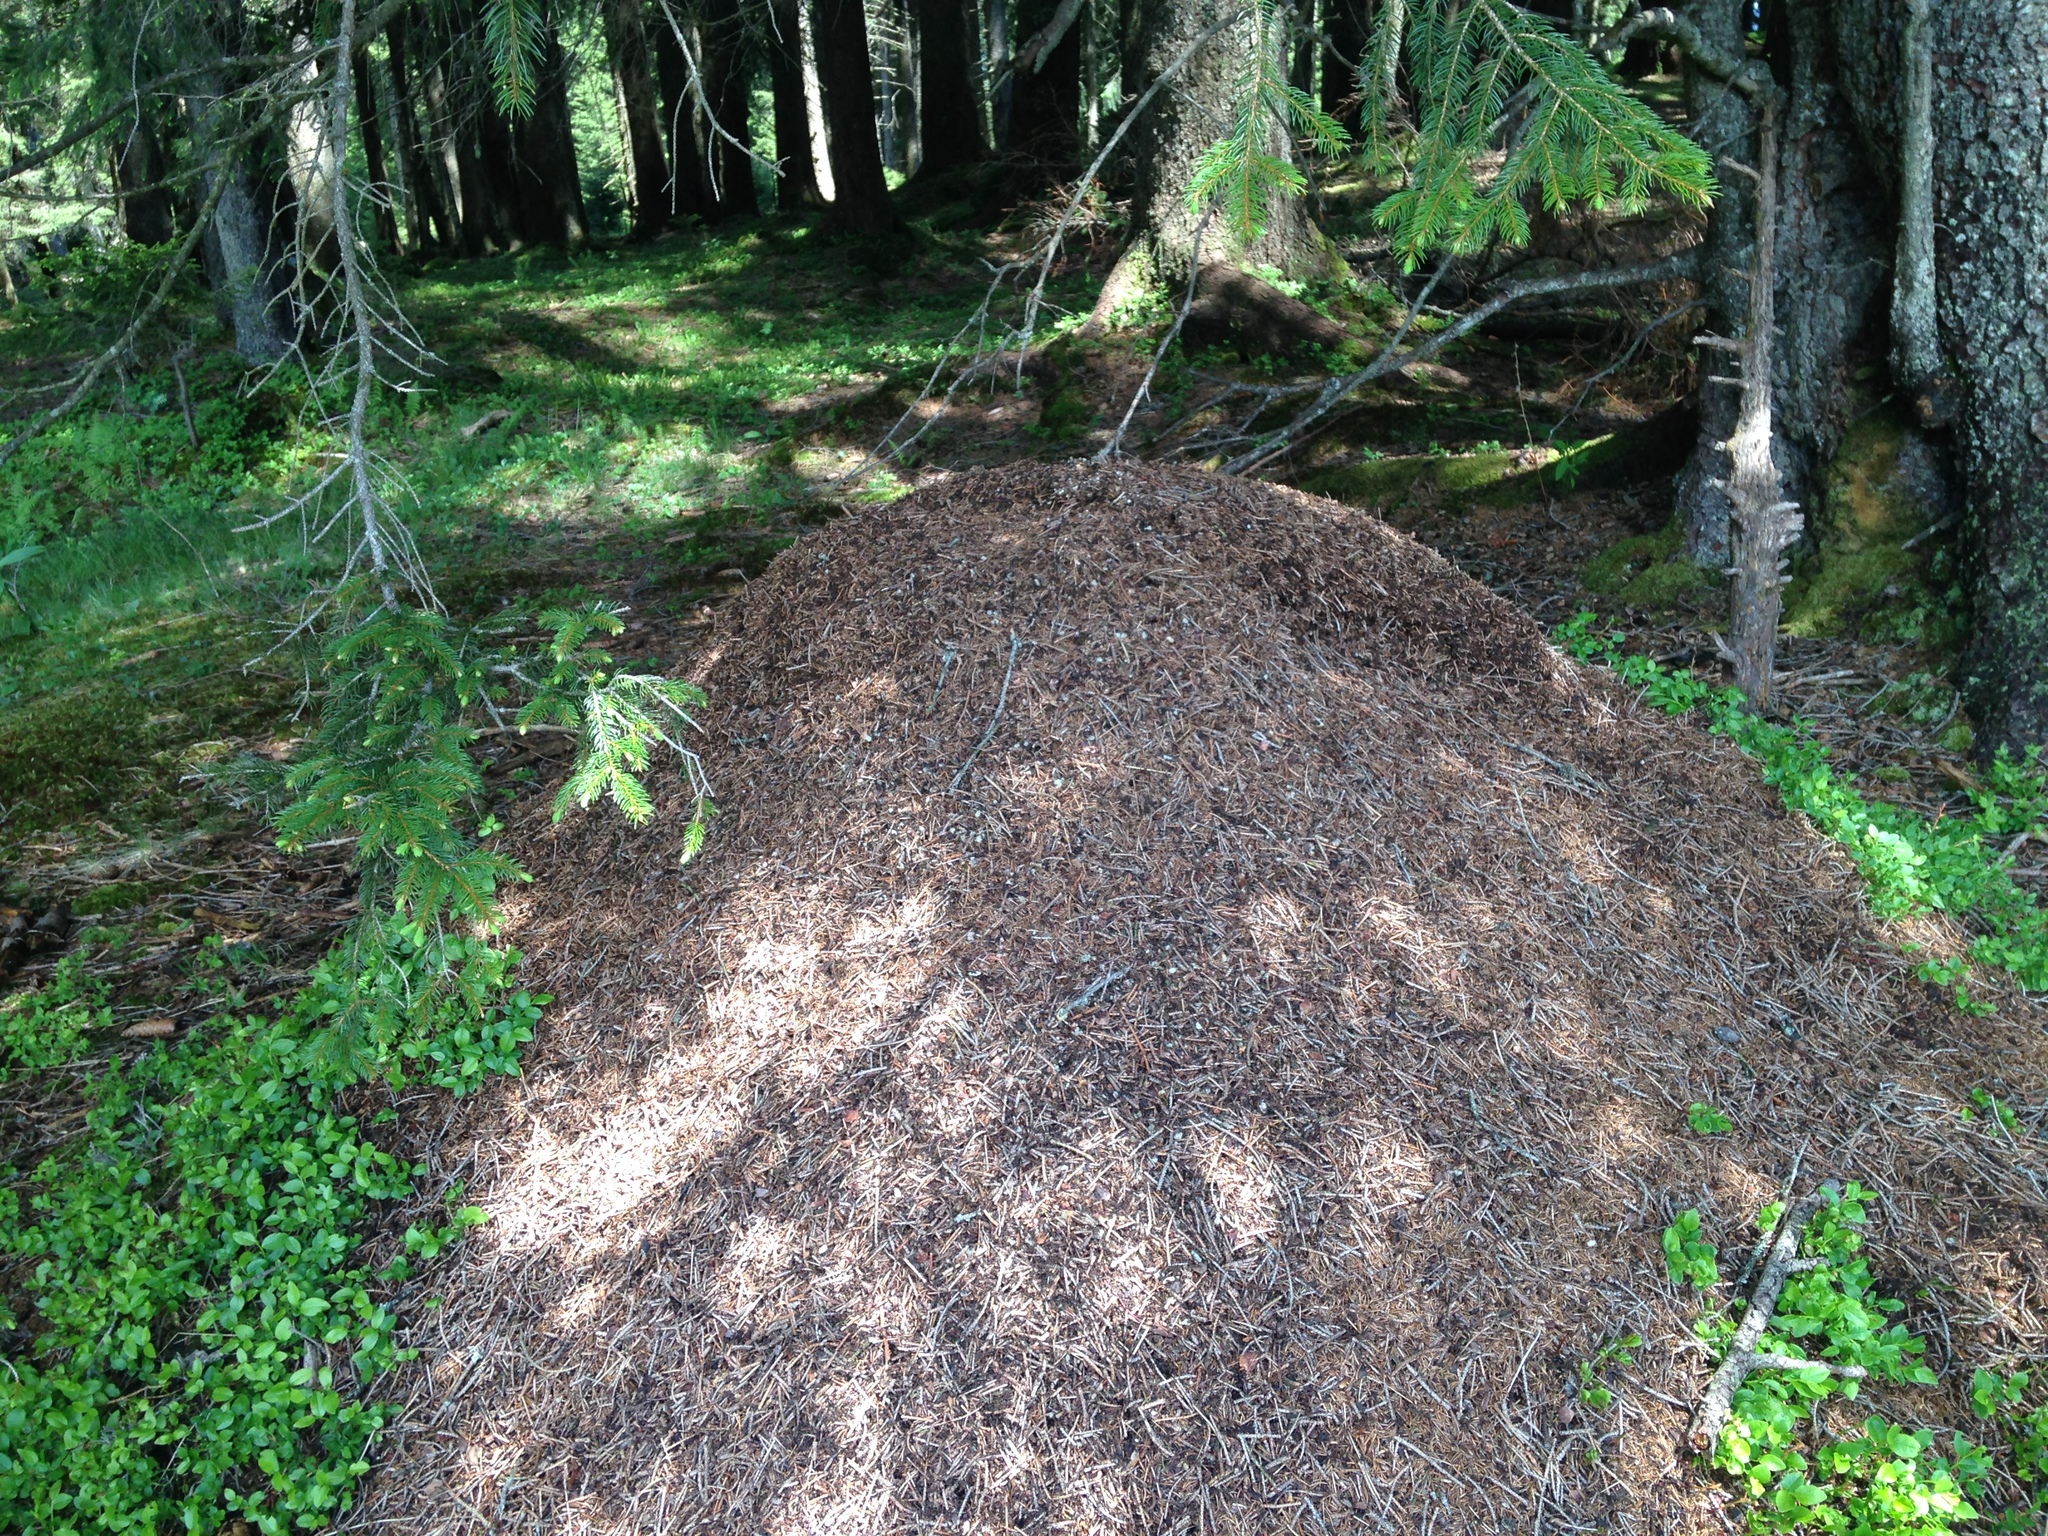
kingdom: Animalia
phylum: Arthropoda
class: Insecta
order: Hymenoptera
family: Formicidae
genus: Formica
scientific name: Formica
